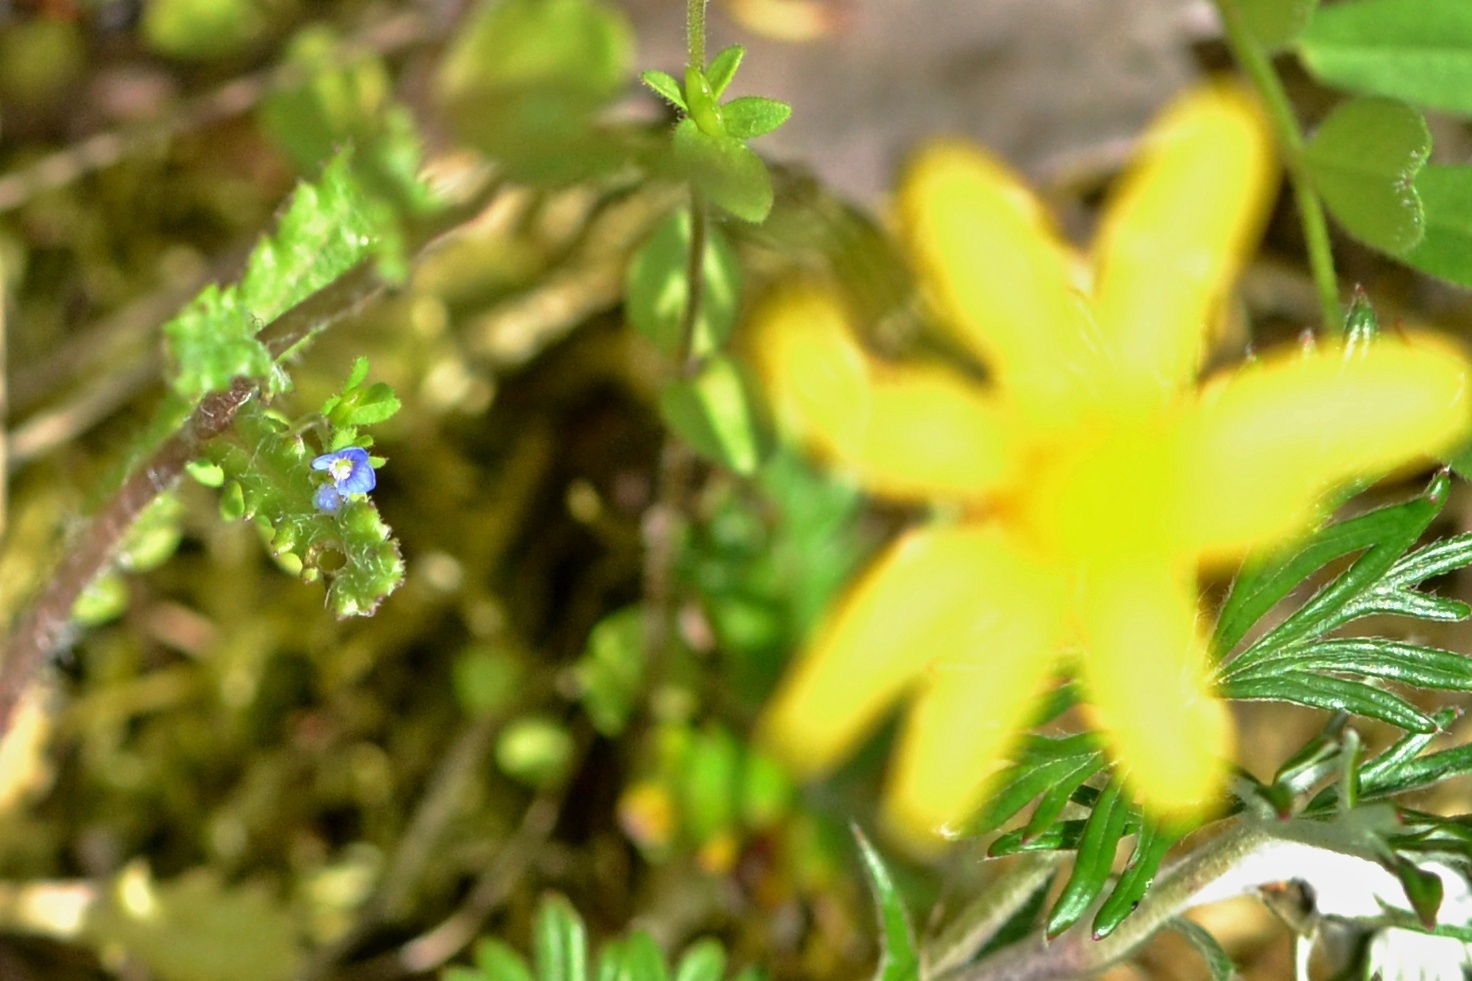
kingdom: Plantae
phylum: Tracheophyta
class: Magnoliopsida
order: Asterales
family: Asteraceae
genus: Senecio
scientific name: Senecio vernalis
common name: Eastern groundsel
